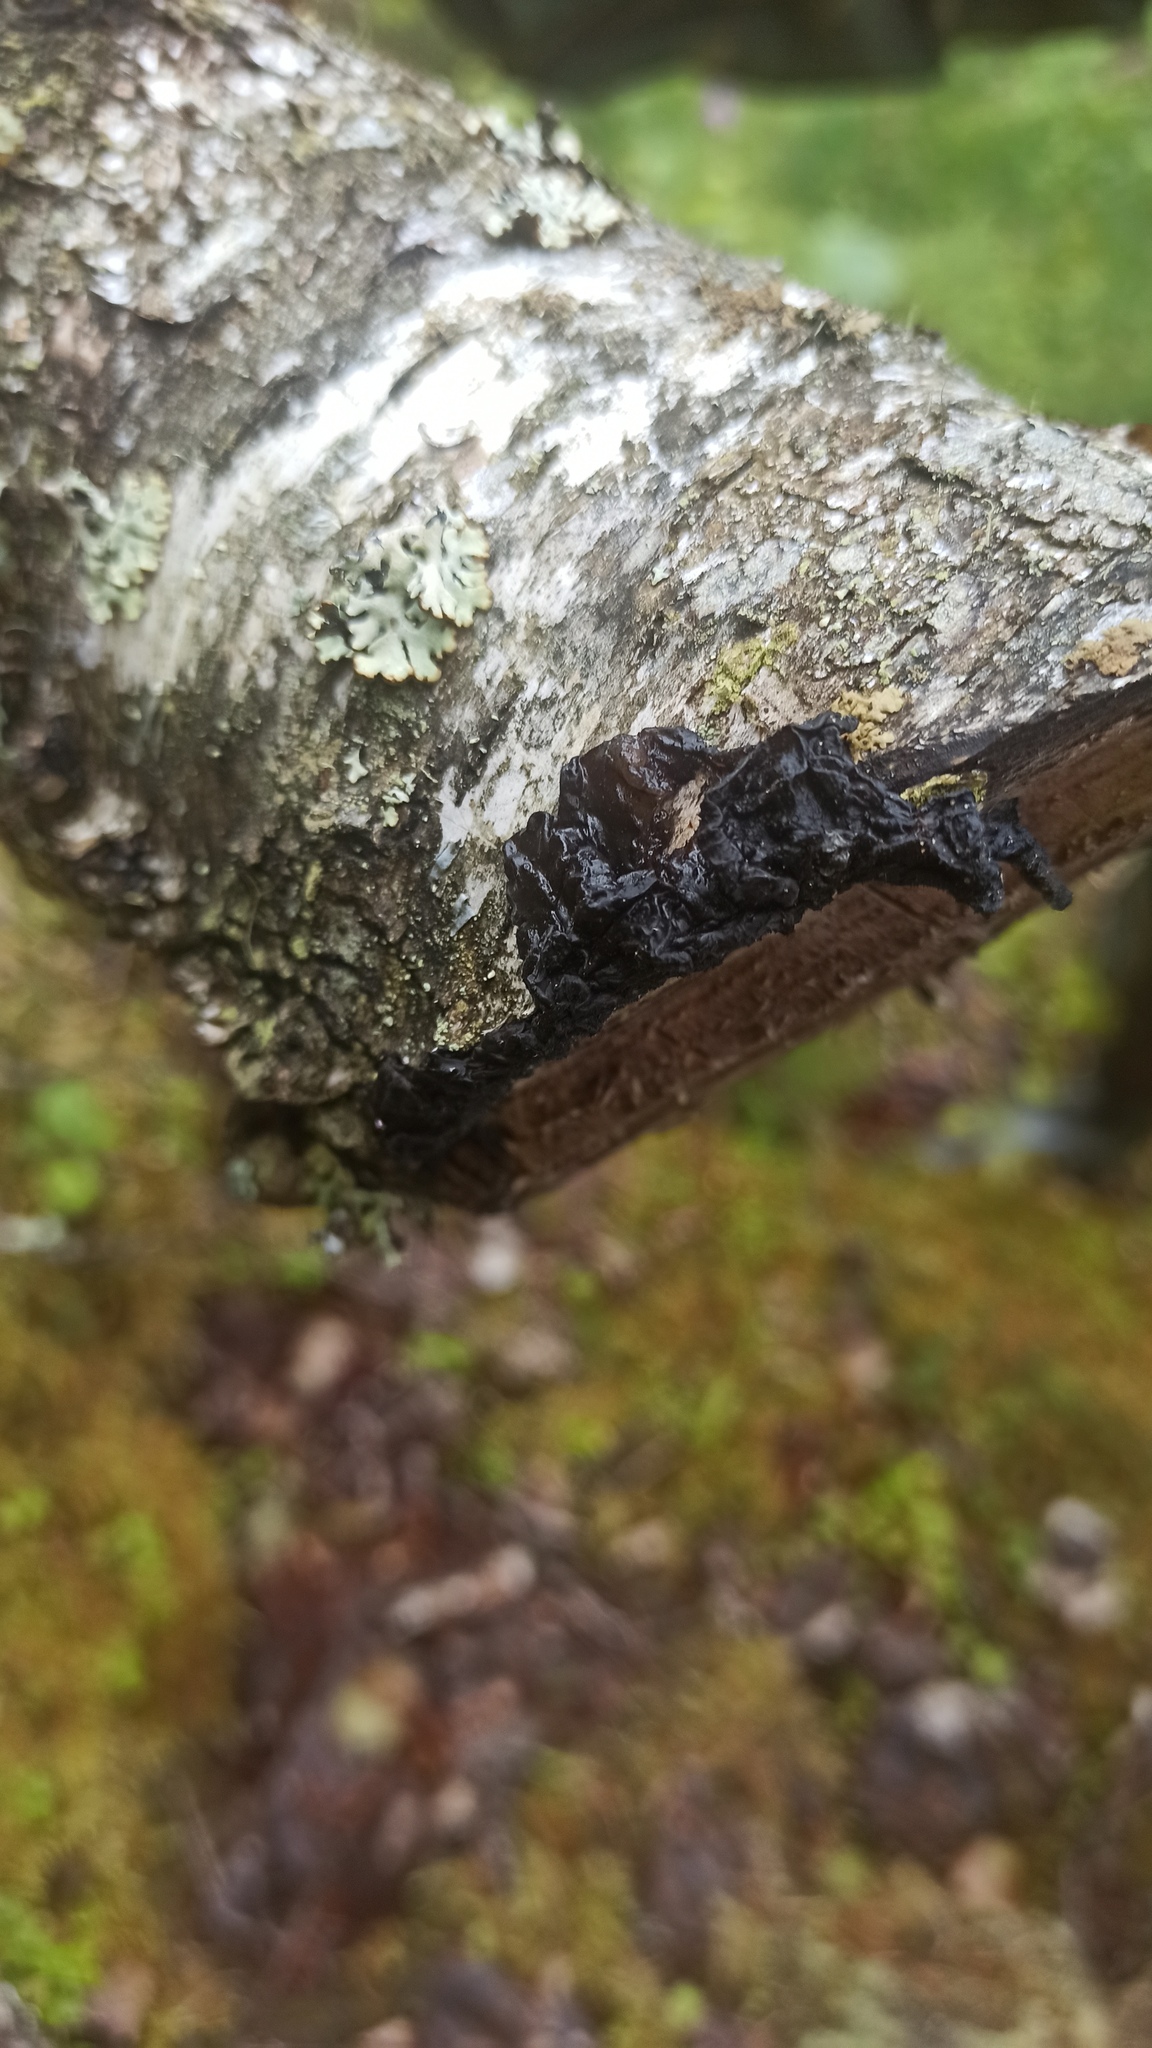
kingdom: Fungi
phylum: Basidiomycota
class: Agaricomycetes
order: Auriculariales
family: Auriculariaceae
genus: Exidia
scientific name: Exidia nigricans
